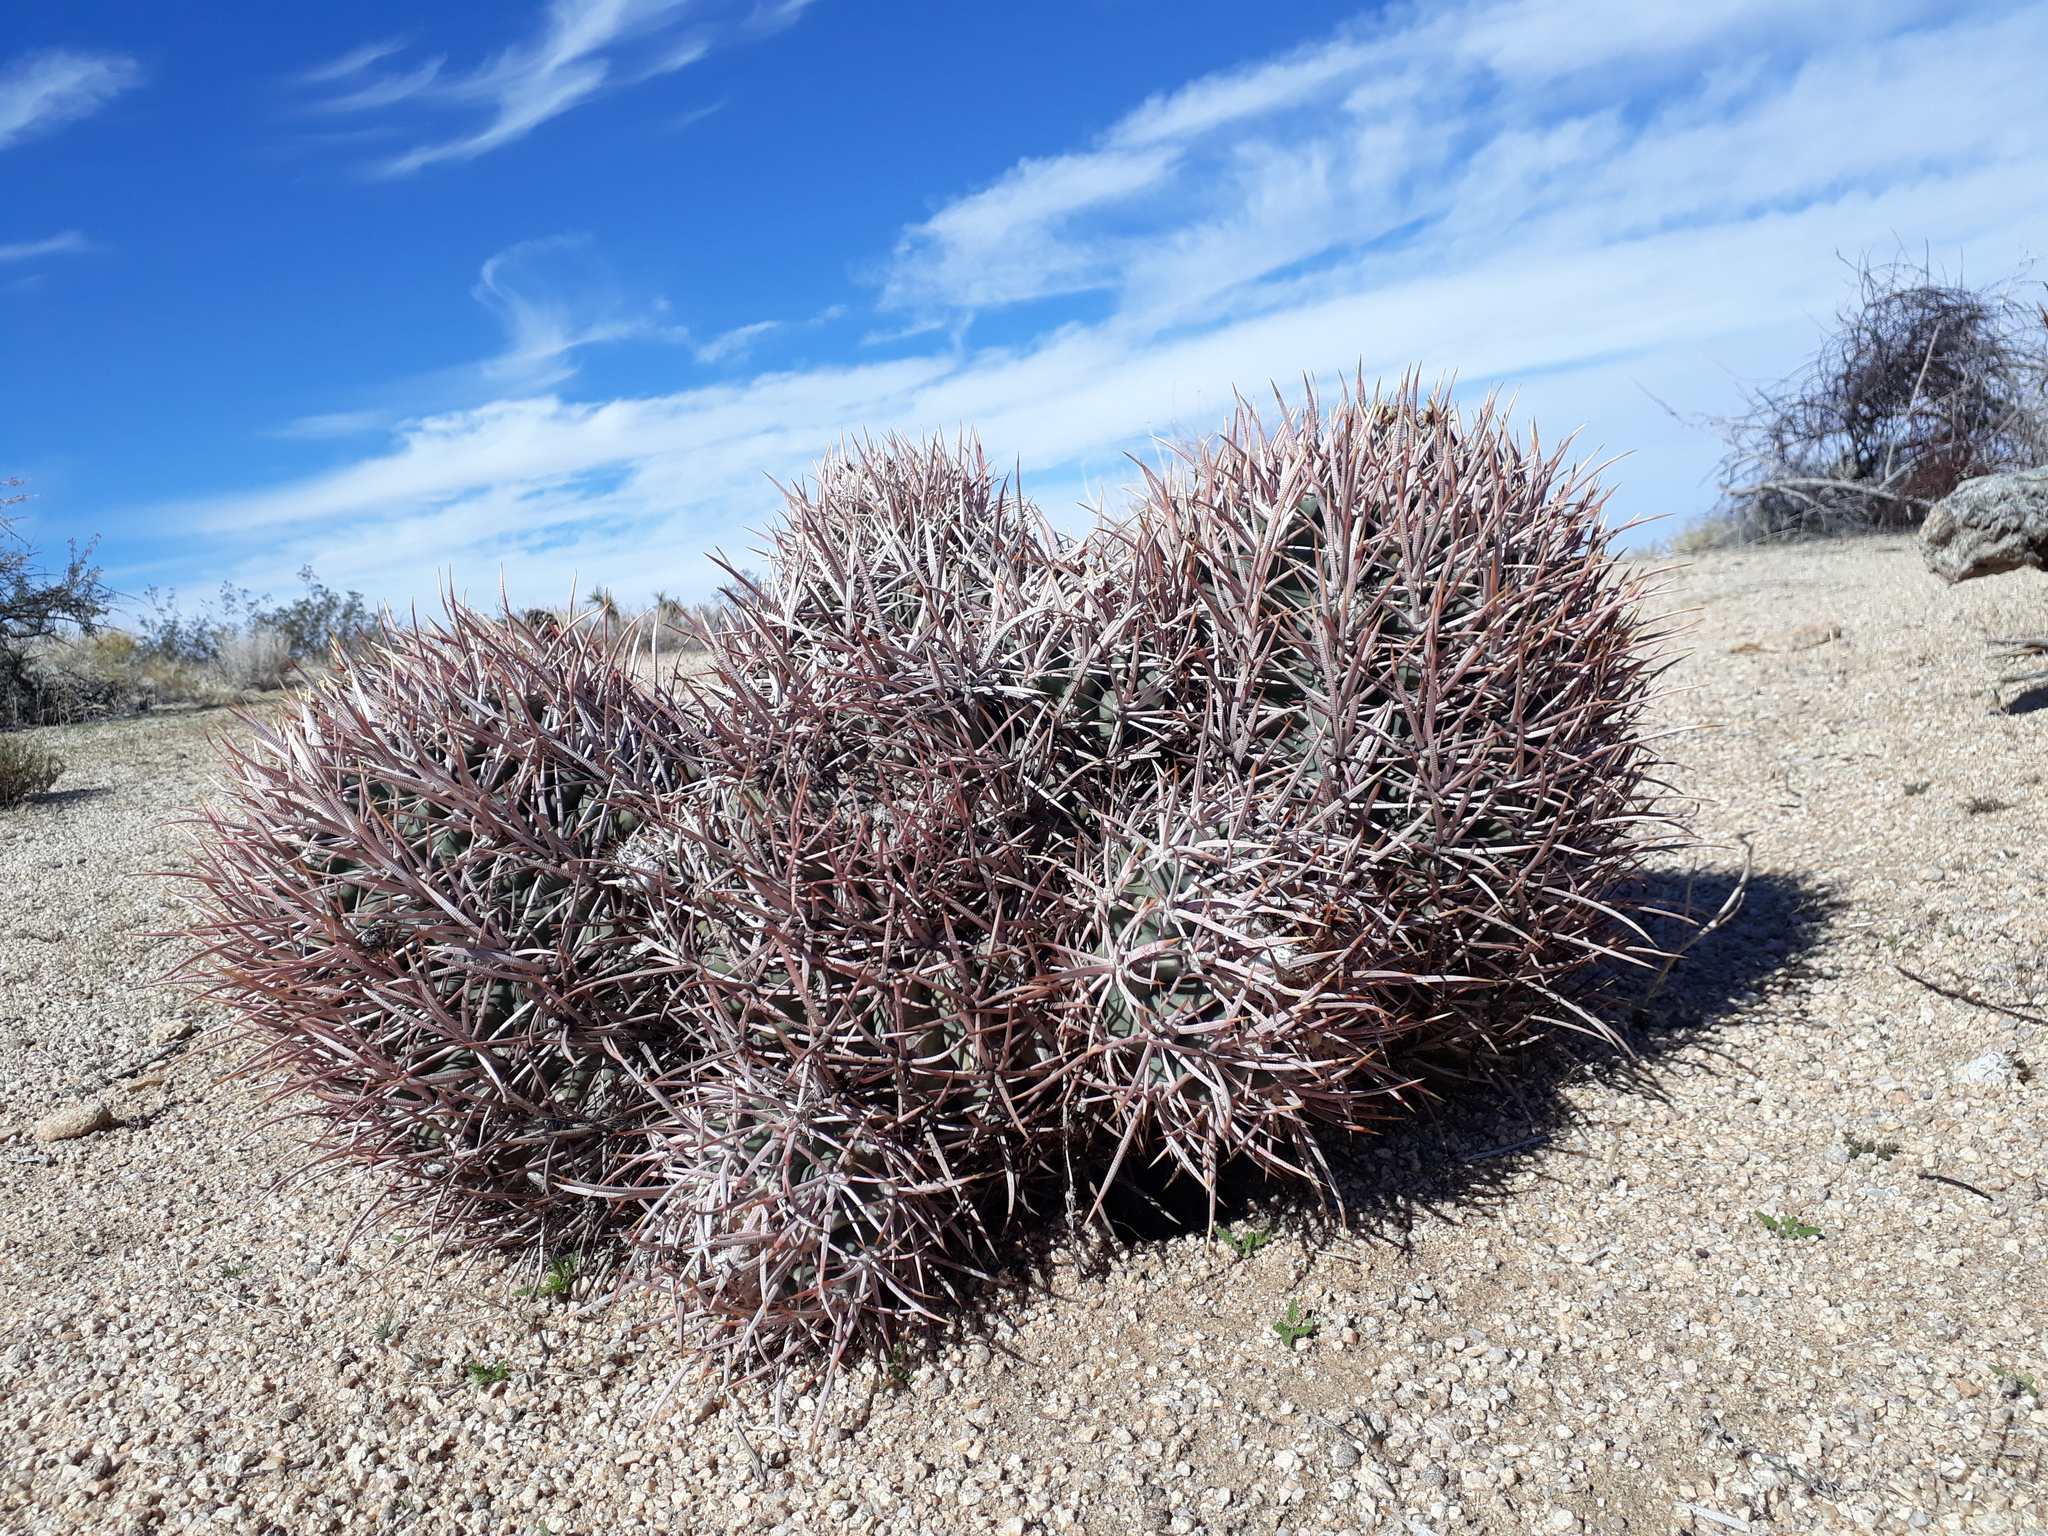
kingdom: Plantae
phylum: Tracheophyta
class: Magnoliopsida
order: Caryophyllales
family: Cactaceae
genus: Echinocactus
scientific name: Echinocactus polycephalus
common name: Cottontop cactus
